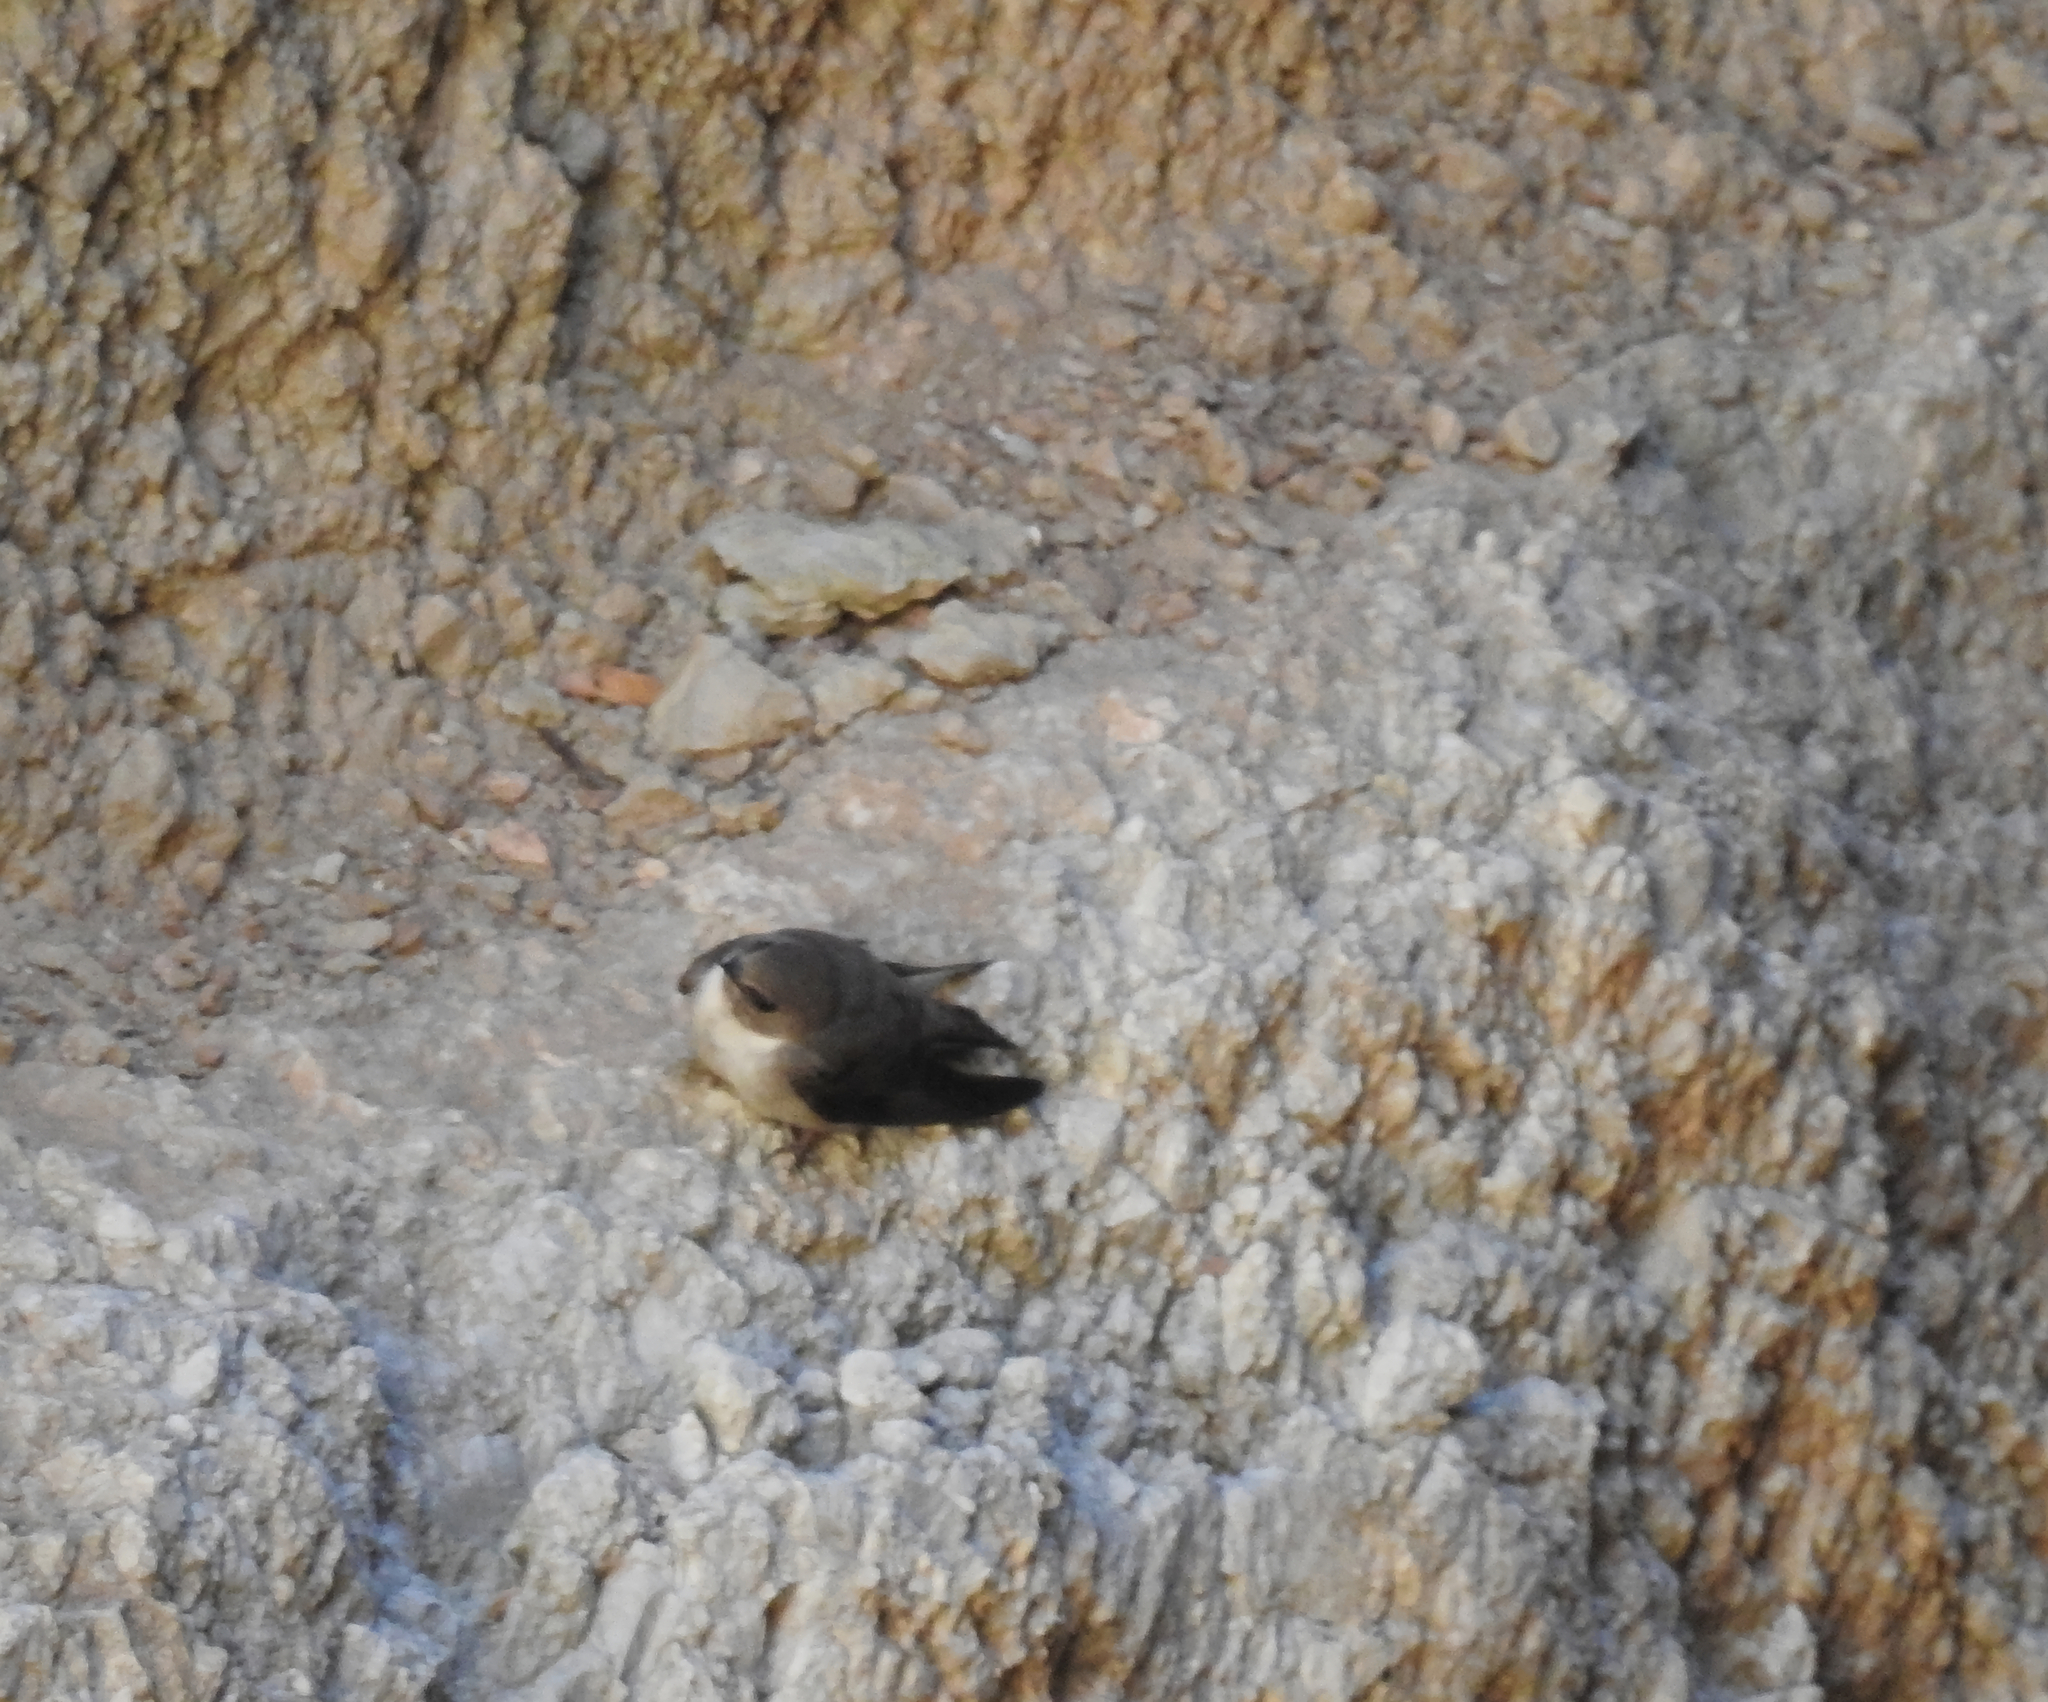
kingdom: Animalia
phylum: Chordata
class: Aves
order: Passeriformes
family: Hirundinidae
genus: Ptyonoprogne
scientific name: Ptyonoprogne rupestris
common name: Eurasian crag martin
